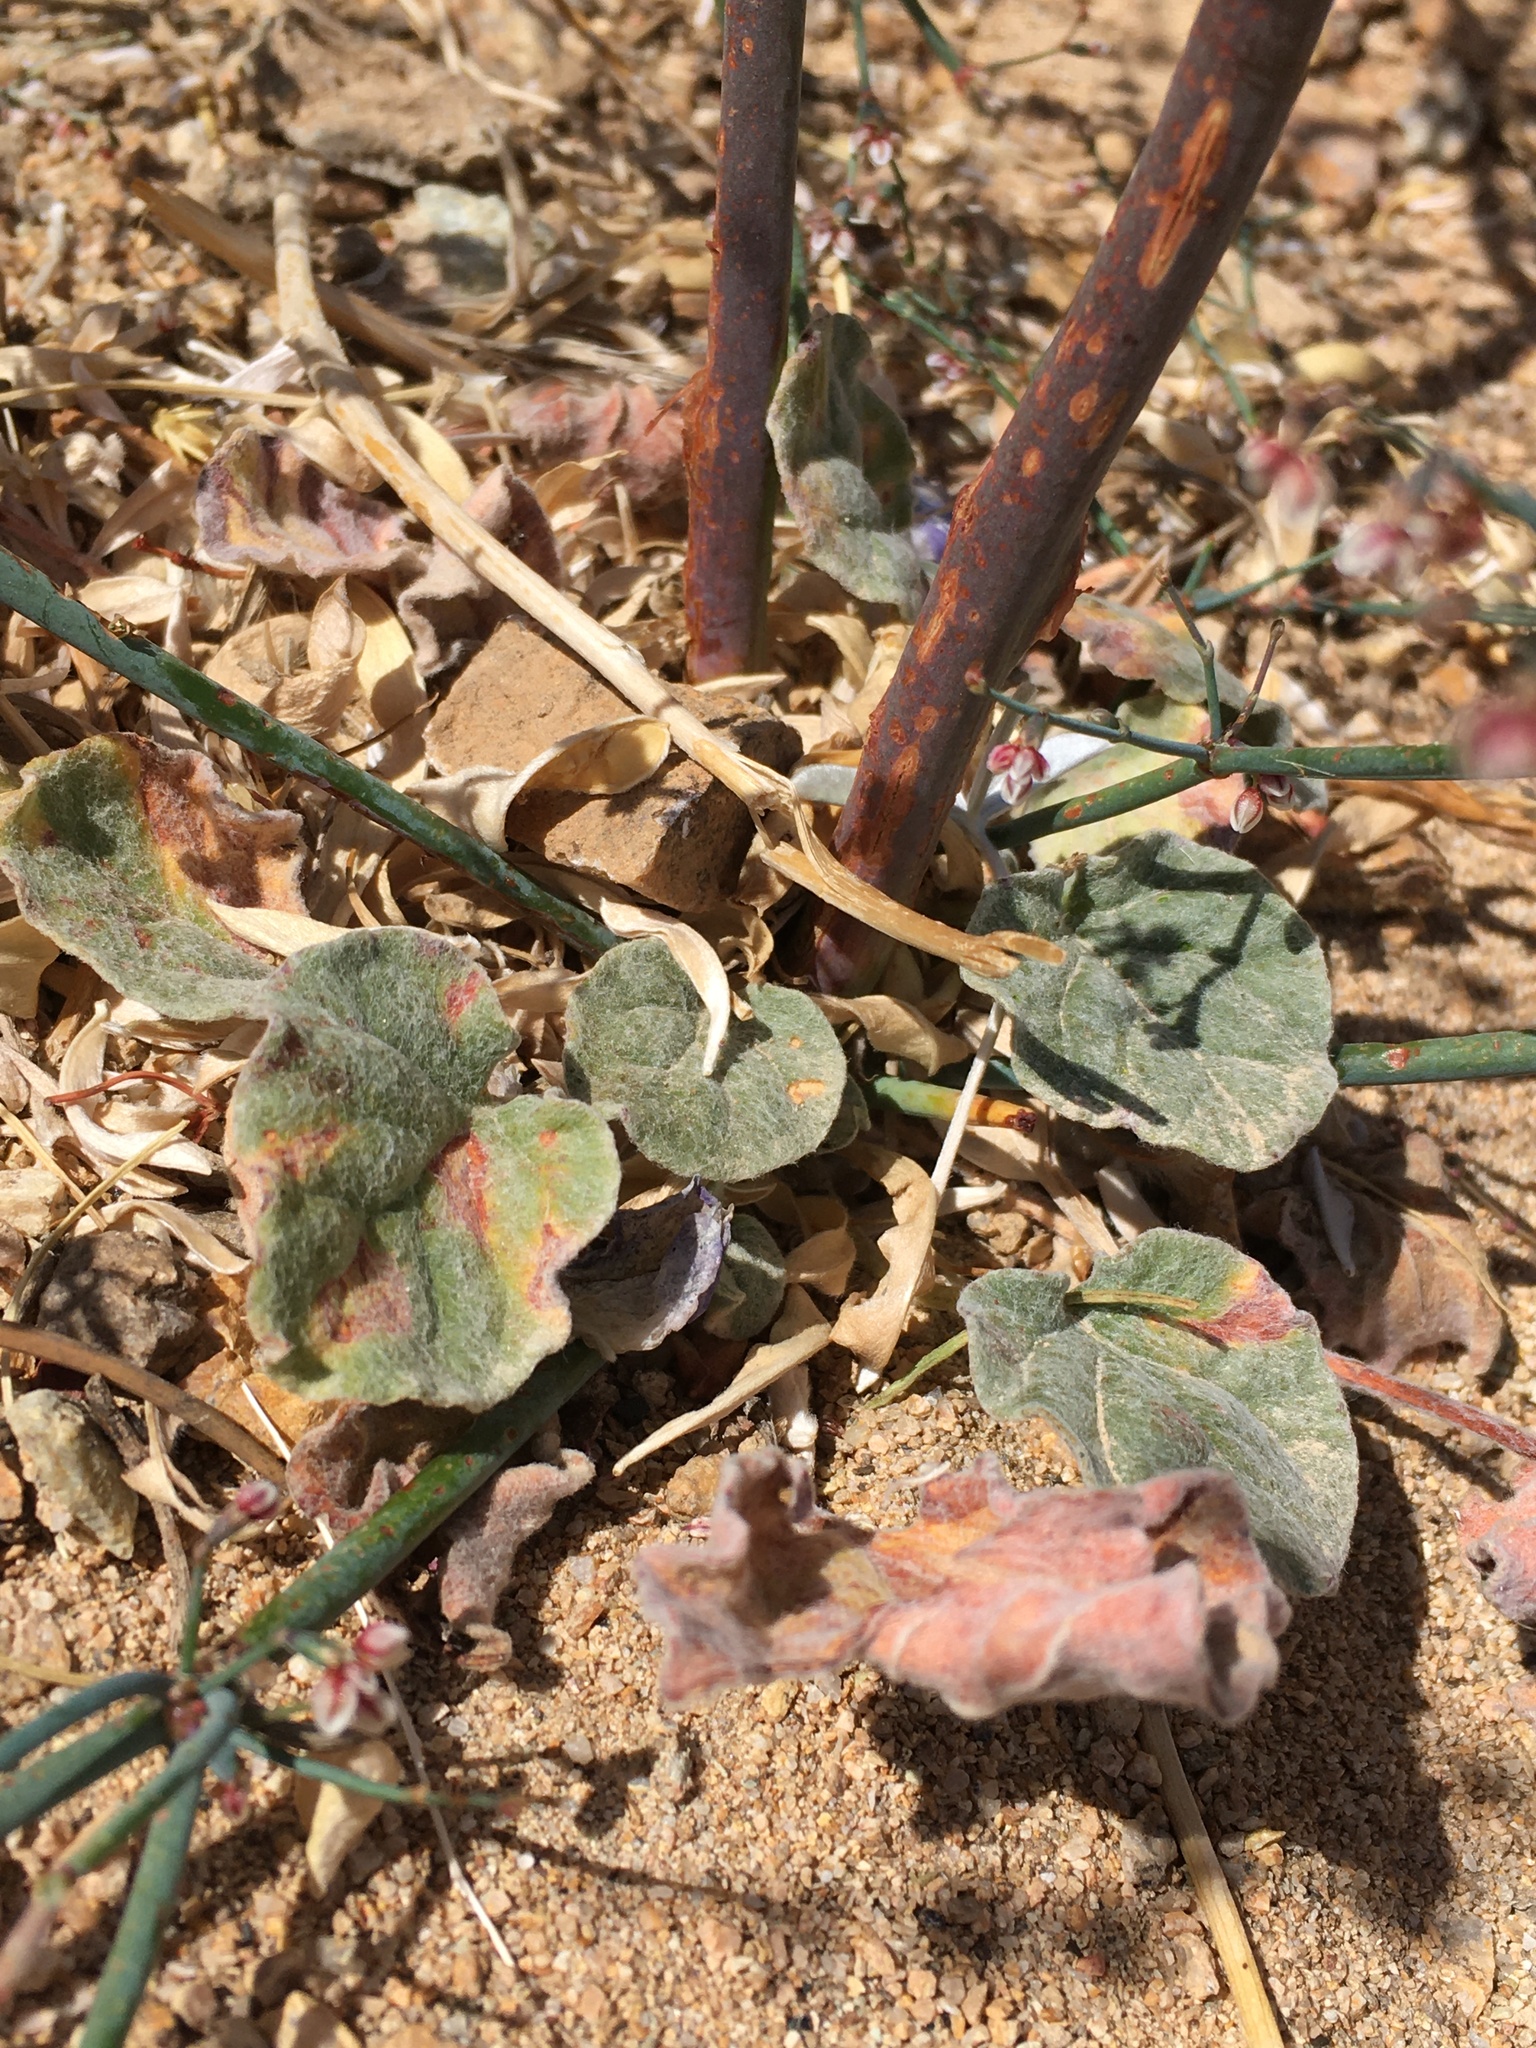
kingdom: Plantae
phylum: Tracheophyta
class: Magnoliopsida
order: Caryophyllales
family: Polygonaceae
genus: Eriogonum
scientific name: Eriogonum deflexum
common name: Skeleton-weed
